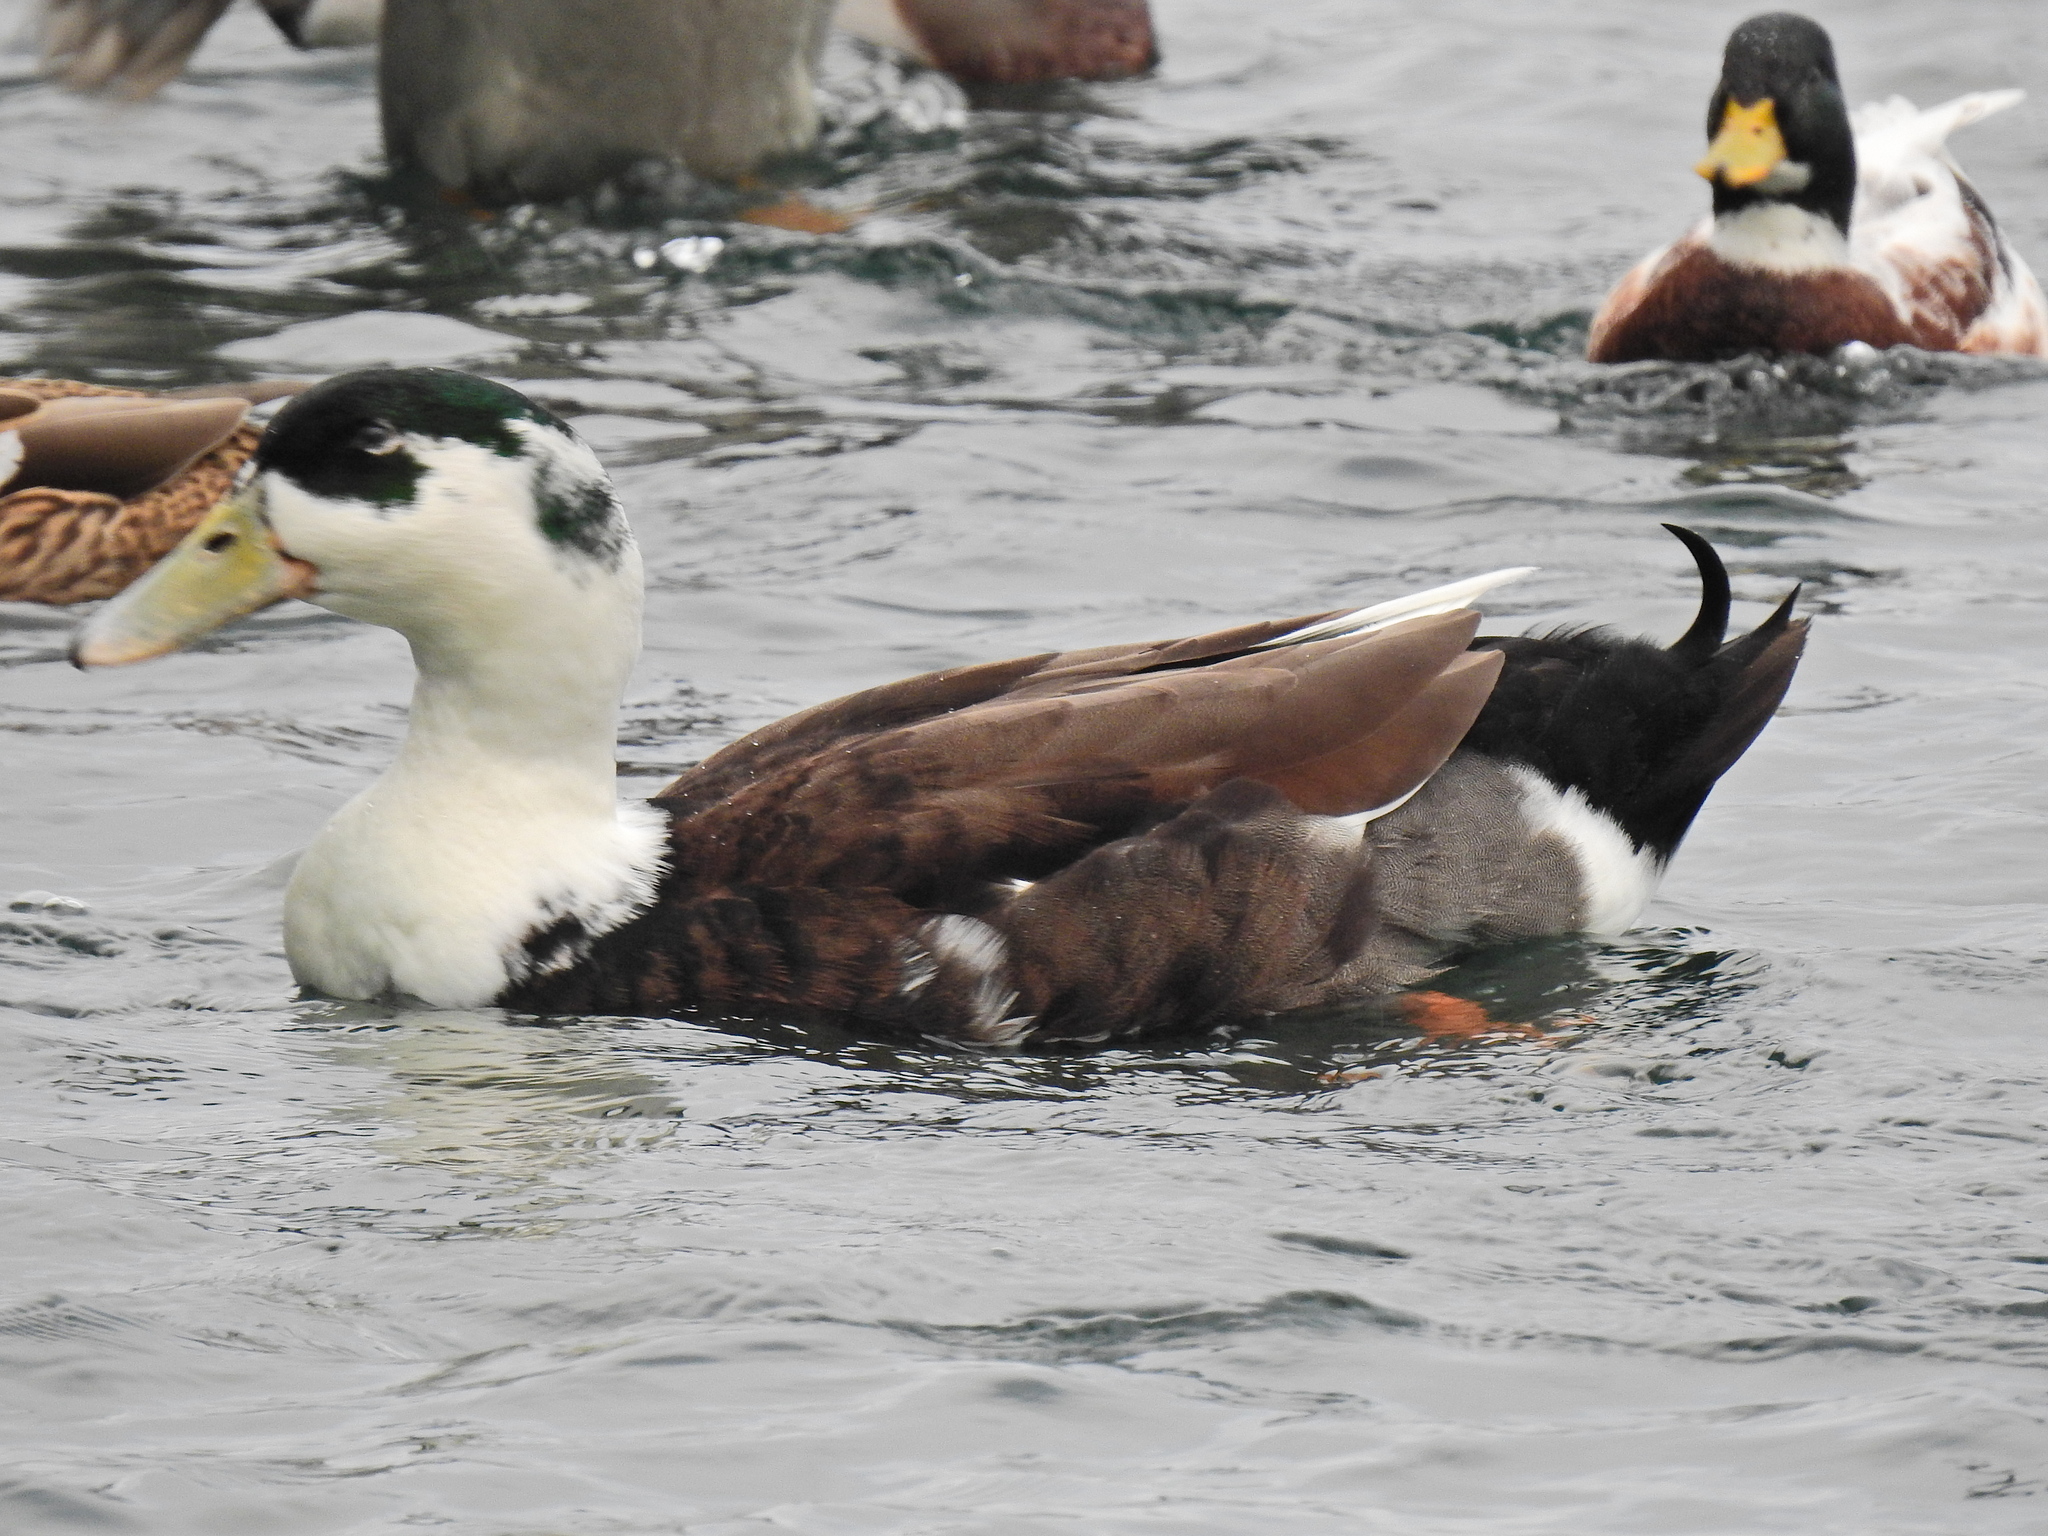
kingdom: Animalia
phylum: Chordata
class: Aves
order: Anseriformes
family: Anatidae
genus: Anas
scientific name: Anas platyrhynchos
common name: Mallard
